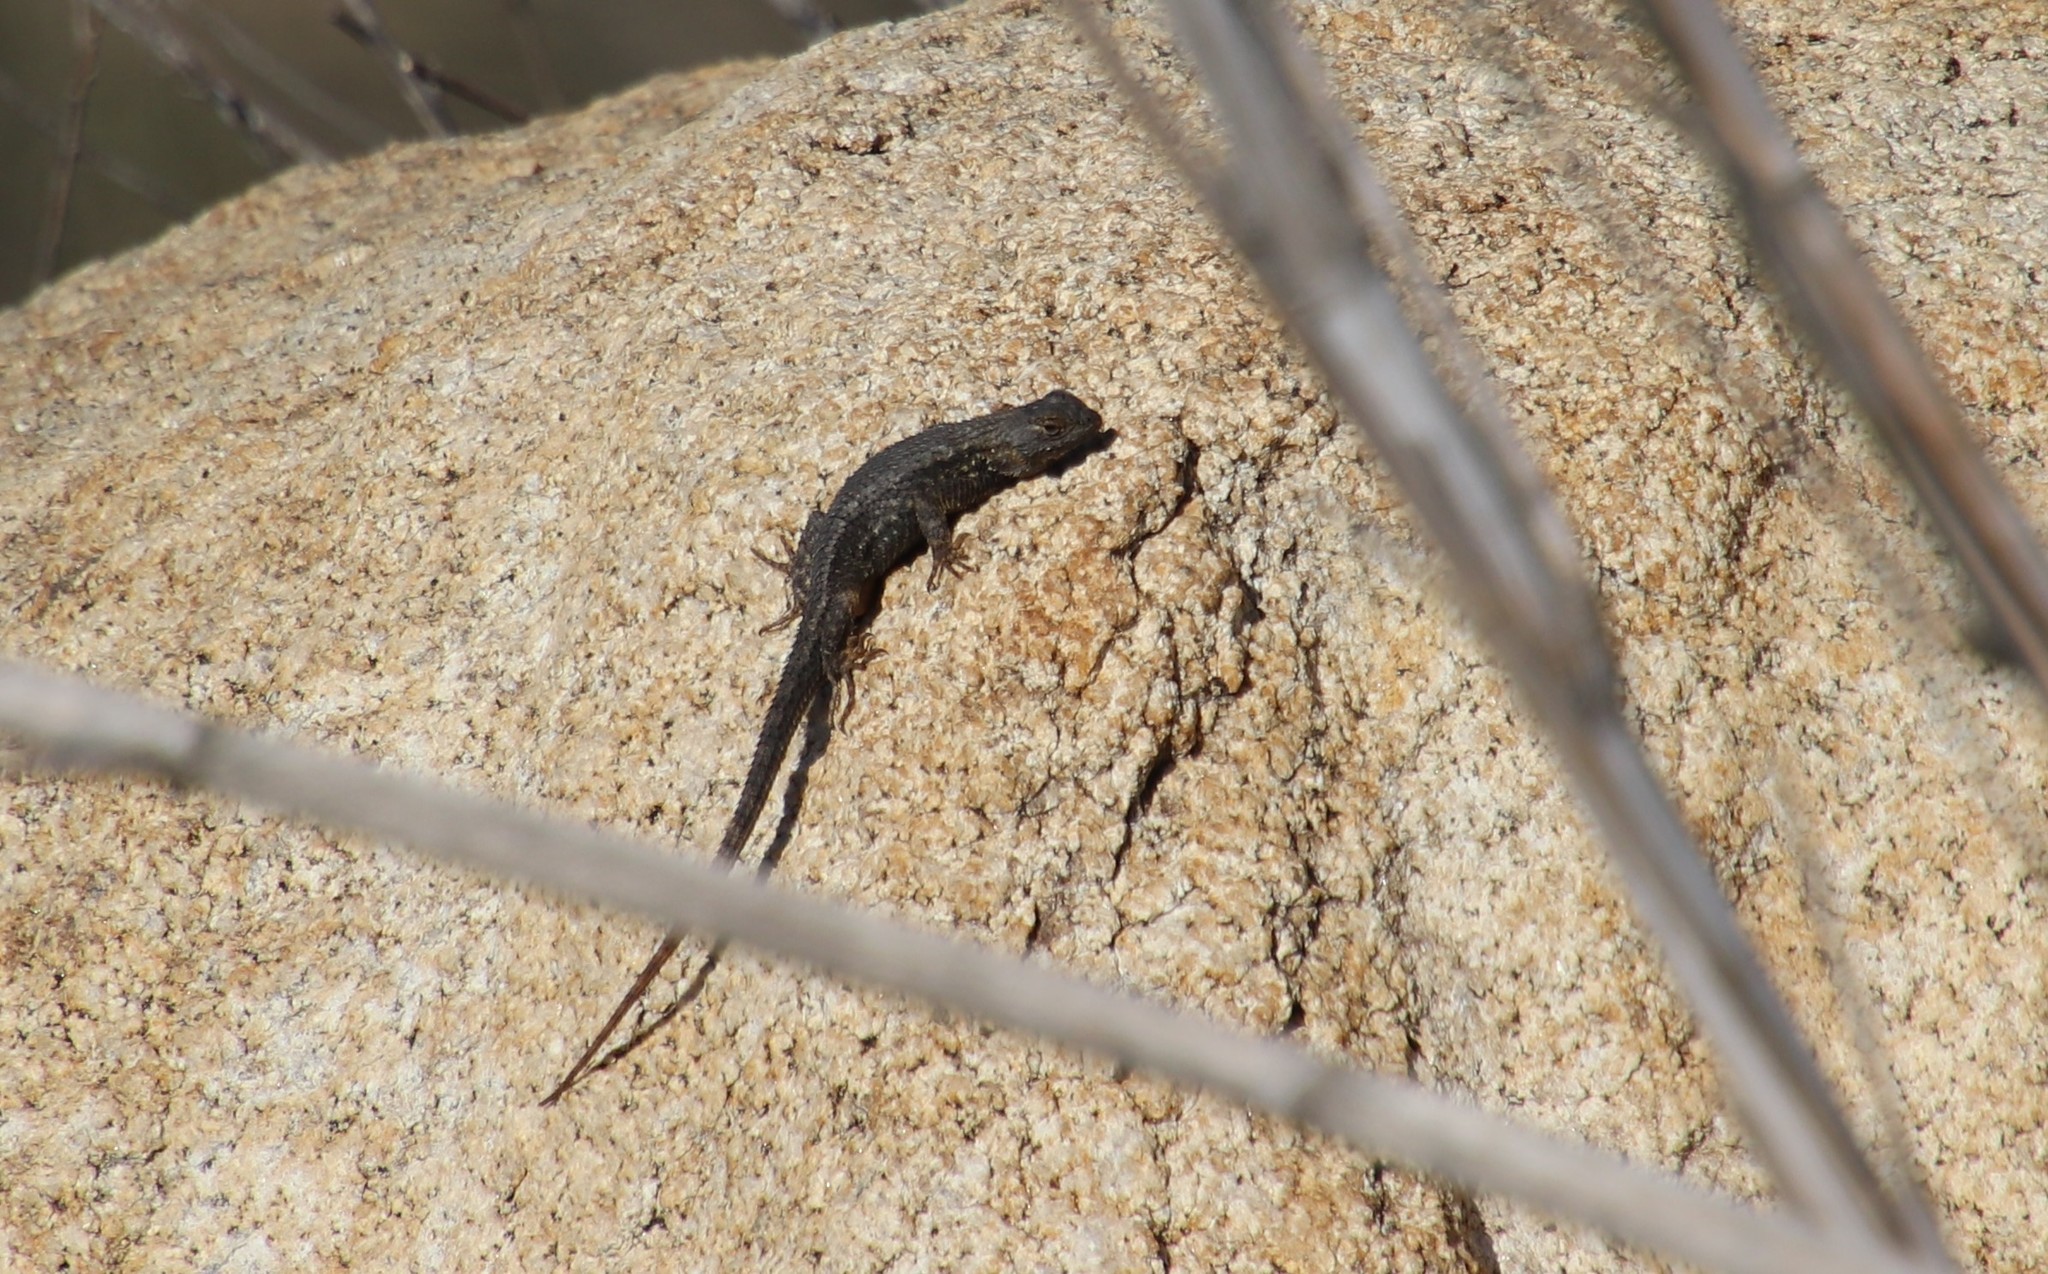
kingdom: Animalia
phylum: Chordata
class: Squamata
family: Phrynosomatidae
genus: Sceloporus
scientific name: Sceloporus occidentalis
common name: Western fence lizard
